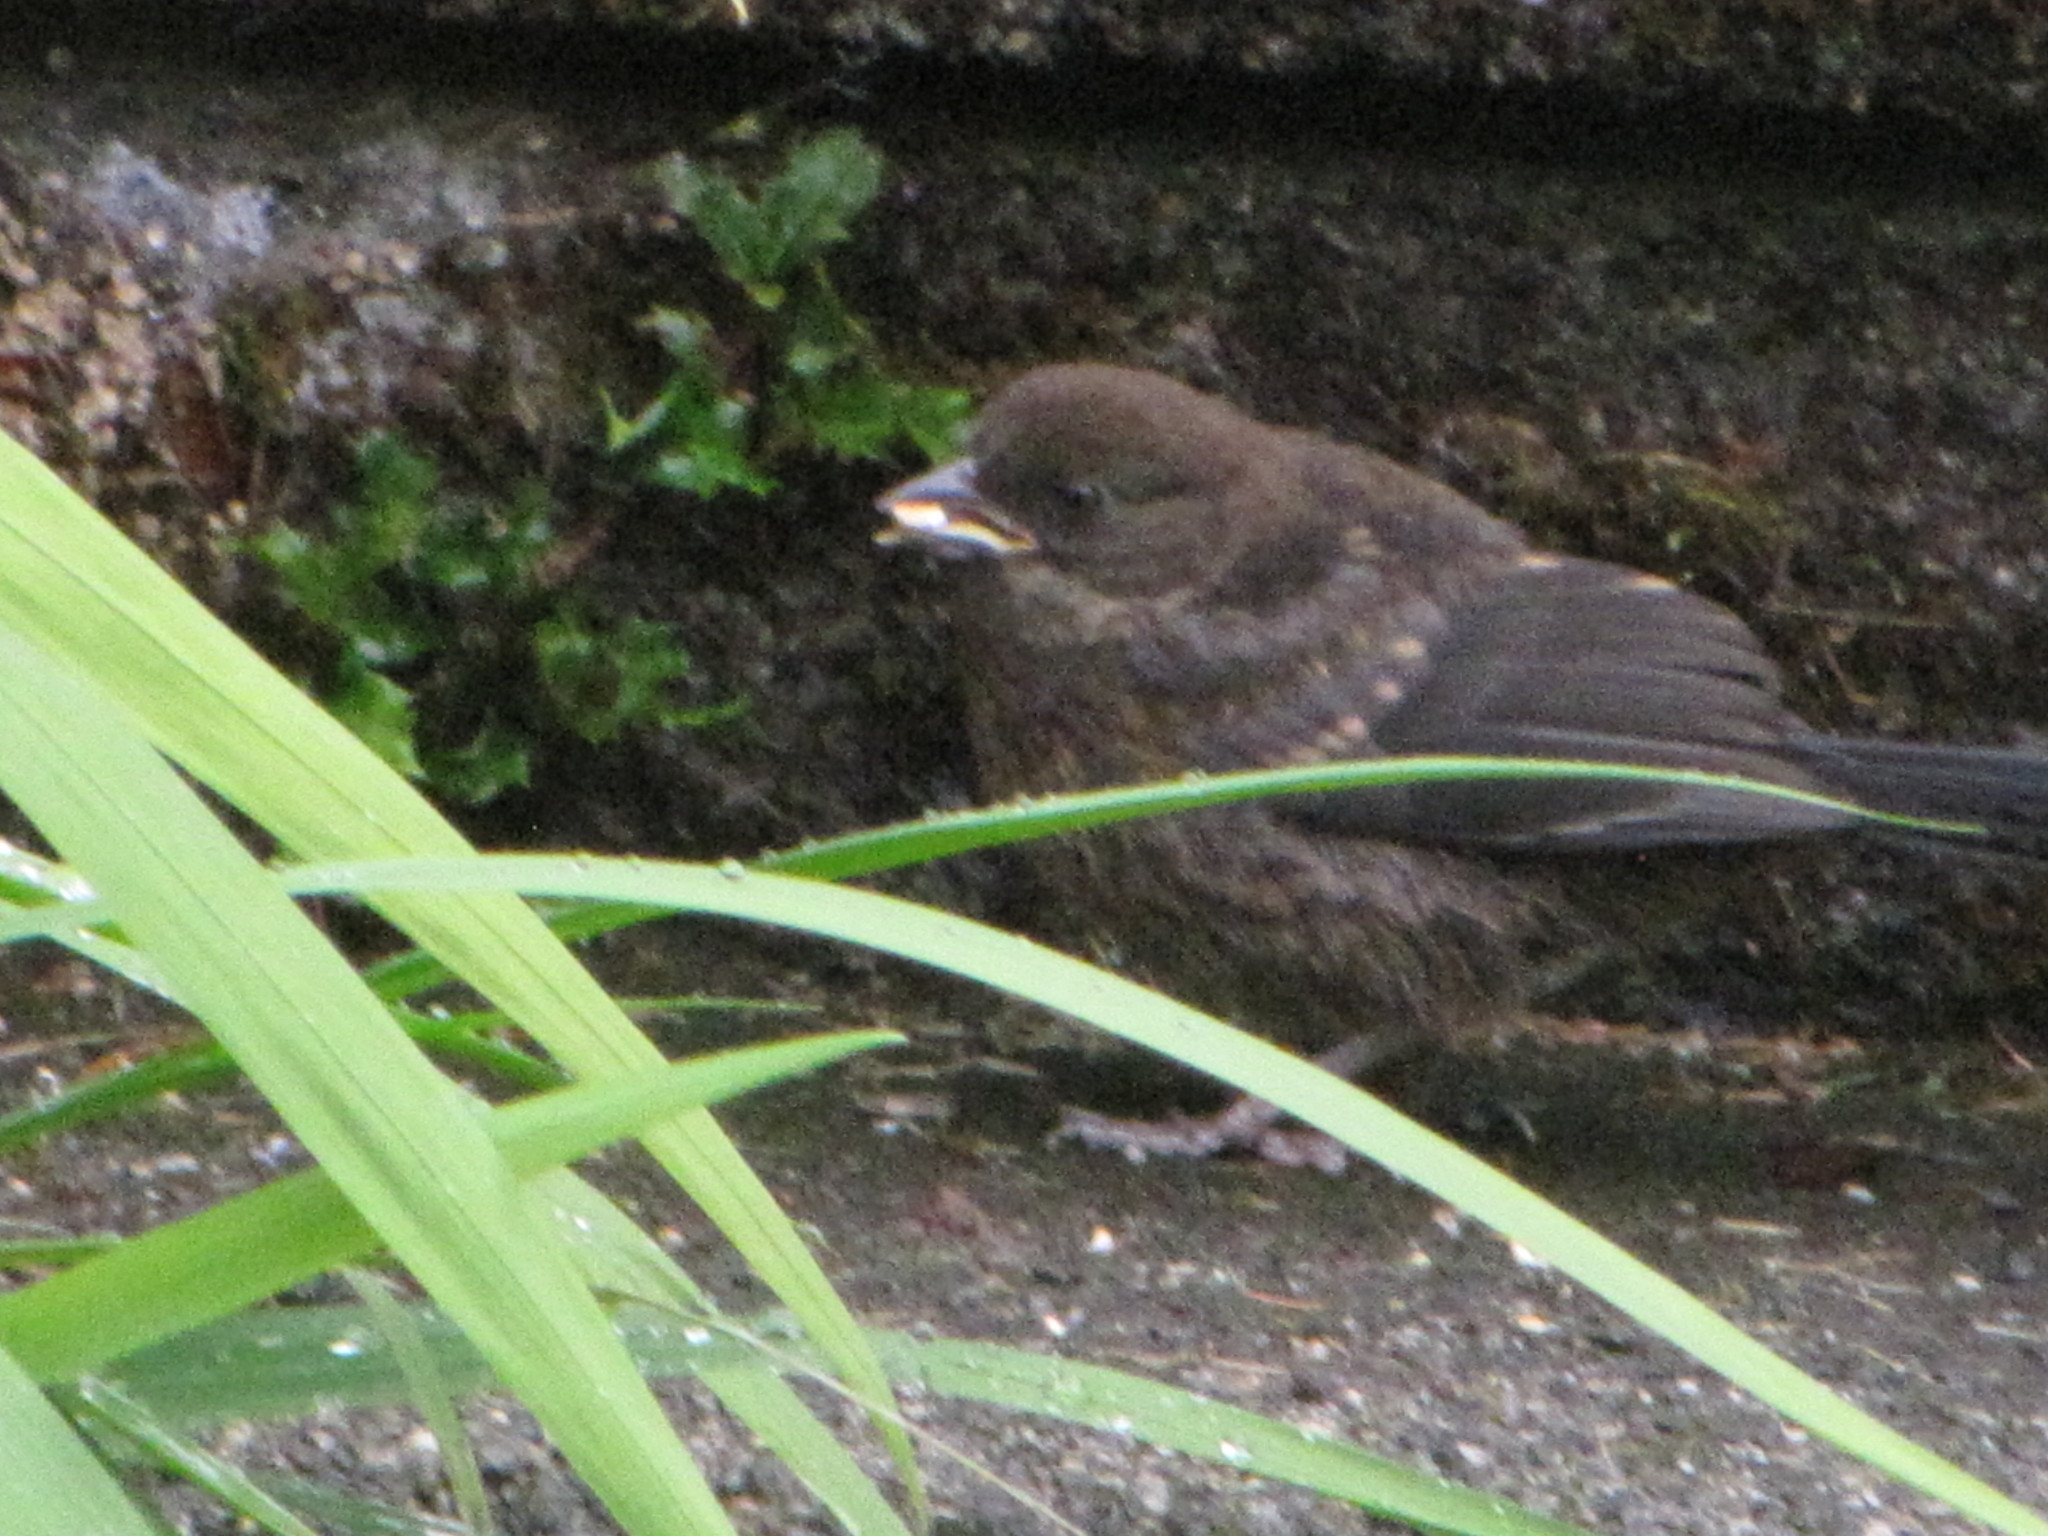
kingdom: Animalia
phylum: Chordata
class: Aves
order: Passeriformes
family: Passerellidae
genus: Pipilo
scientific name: Pipilo maculatus
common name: Spotted towhee
